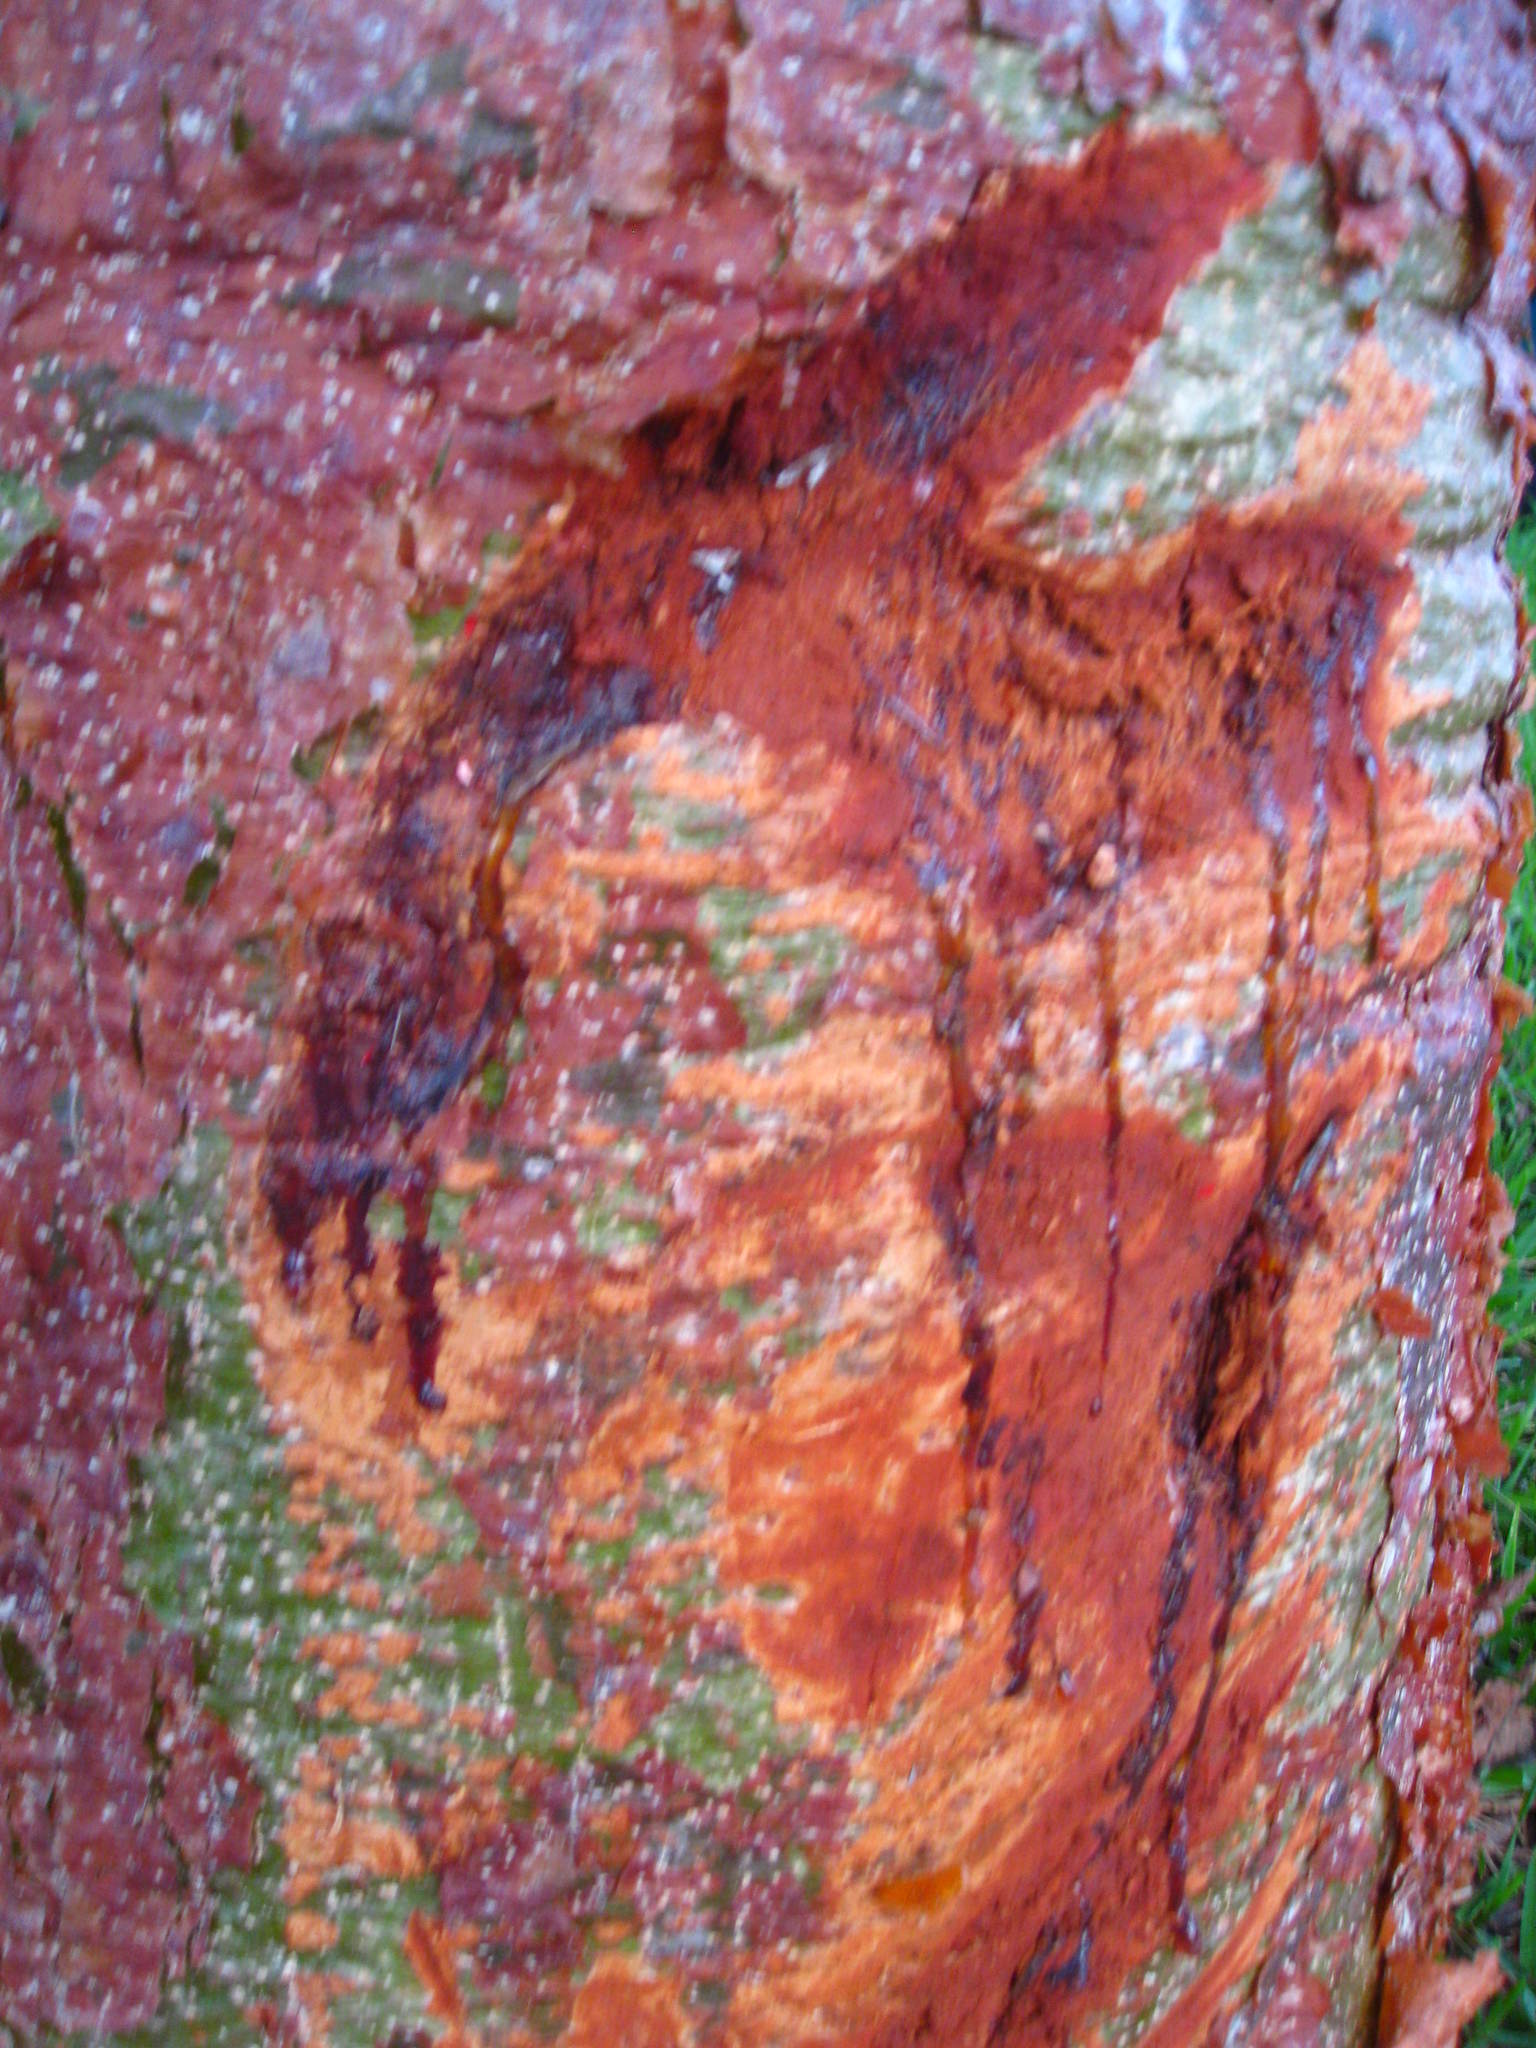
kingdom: Plantae
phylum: Tracheophyta
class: Magnoliopsida
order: Sapindales
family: Burseraceae
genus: Bursera
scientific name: Bursera simaruba
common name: Turpentine tree
